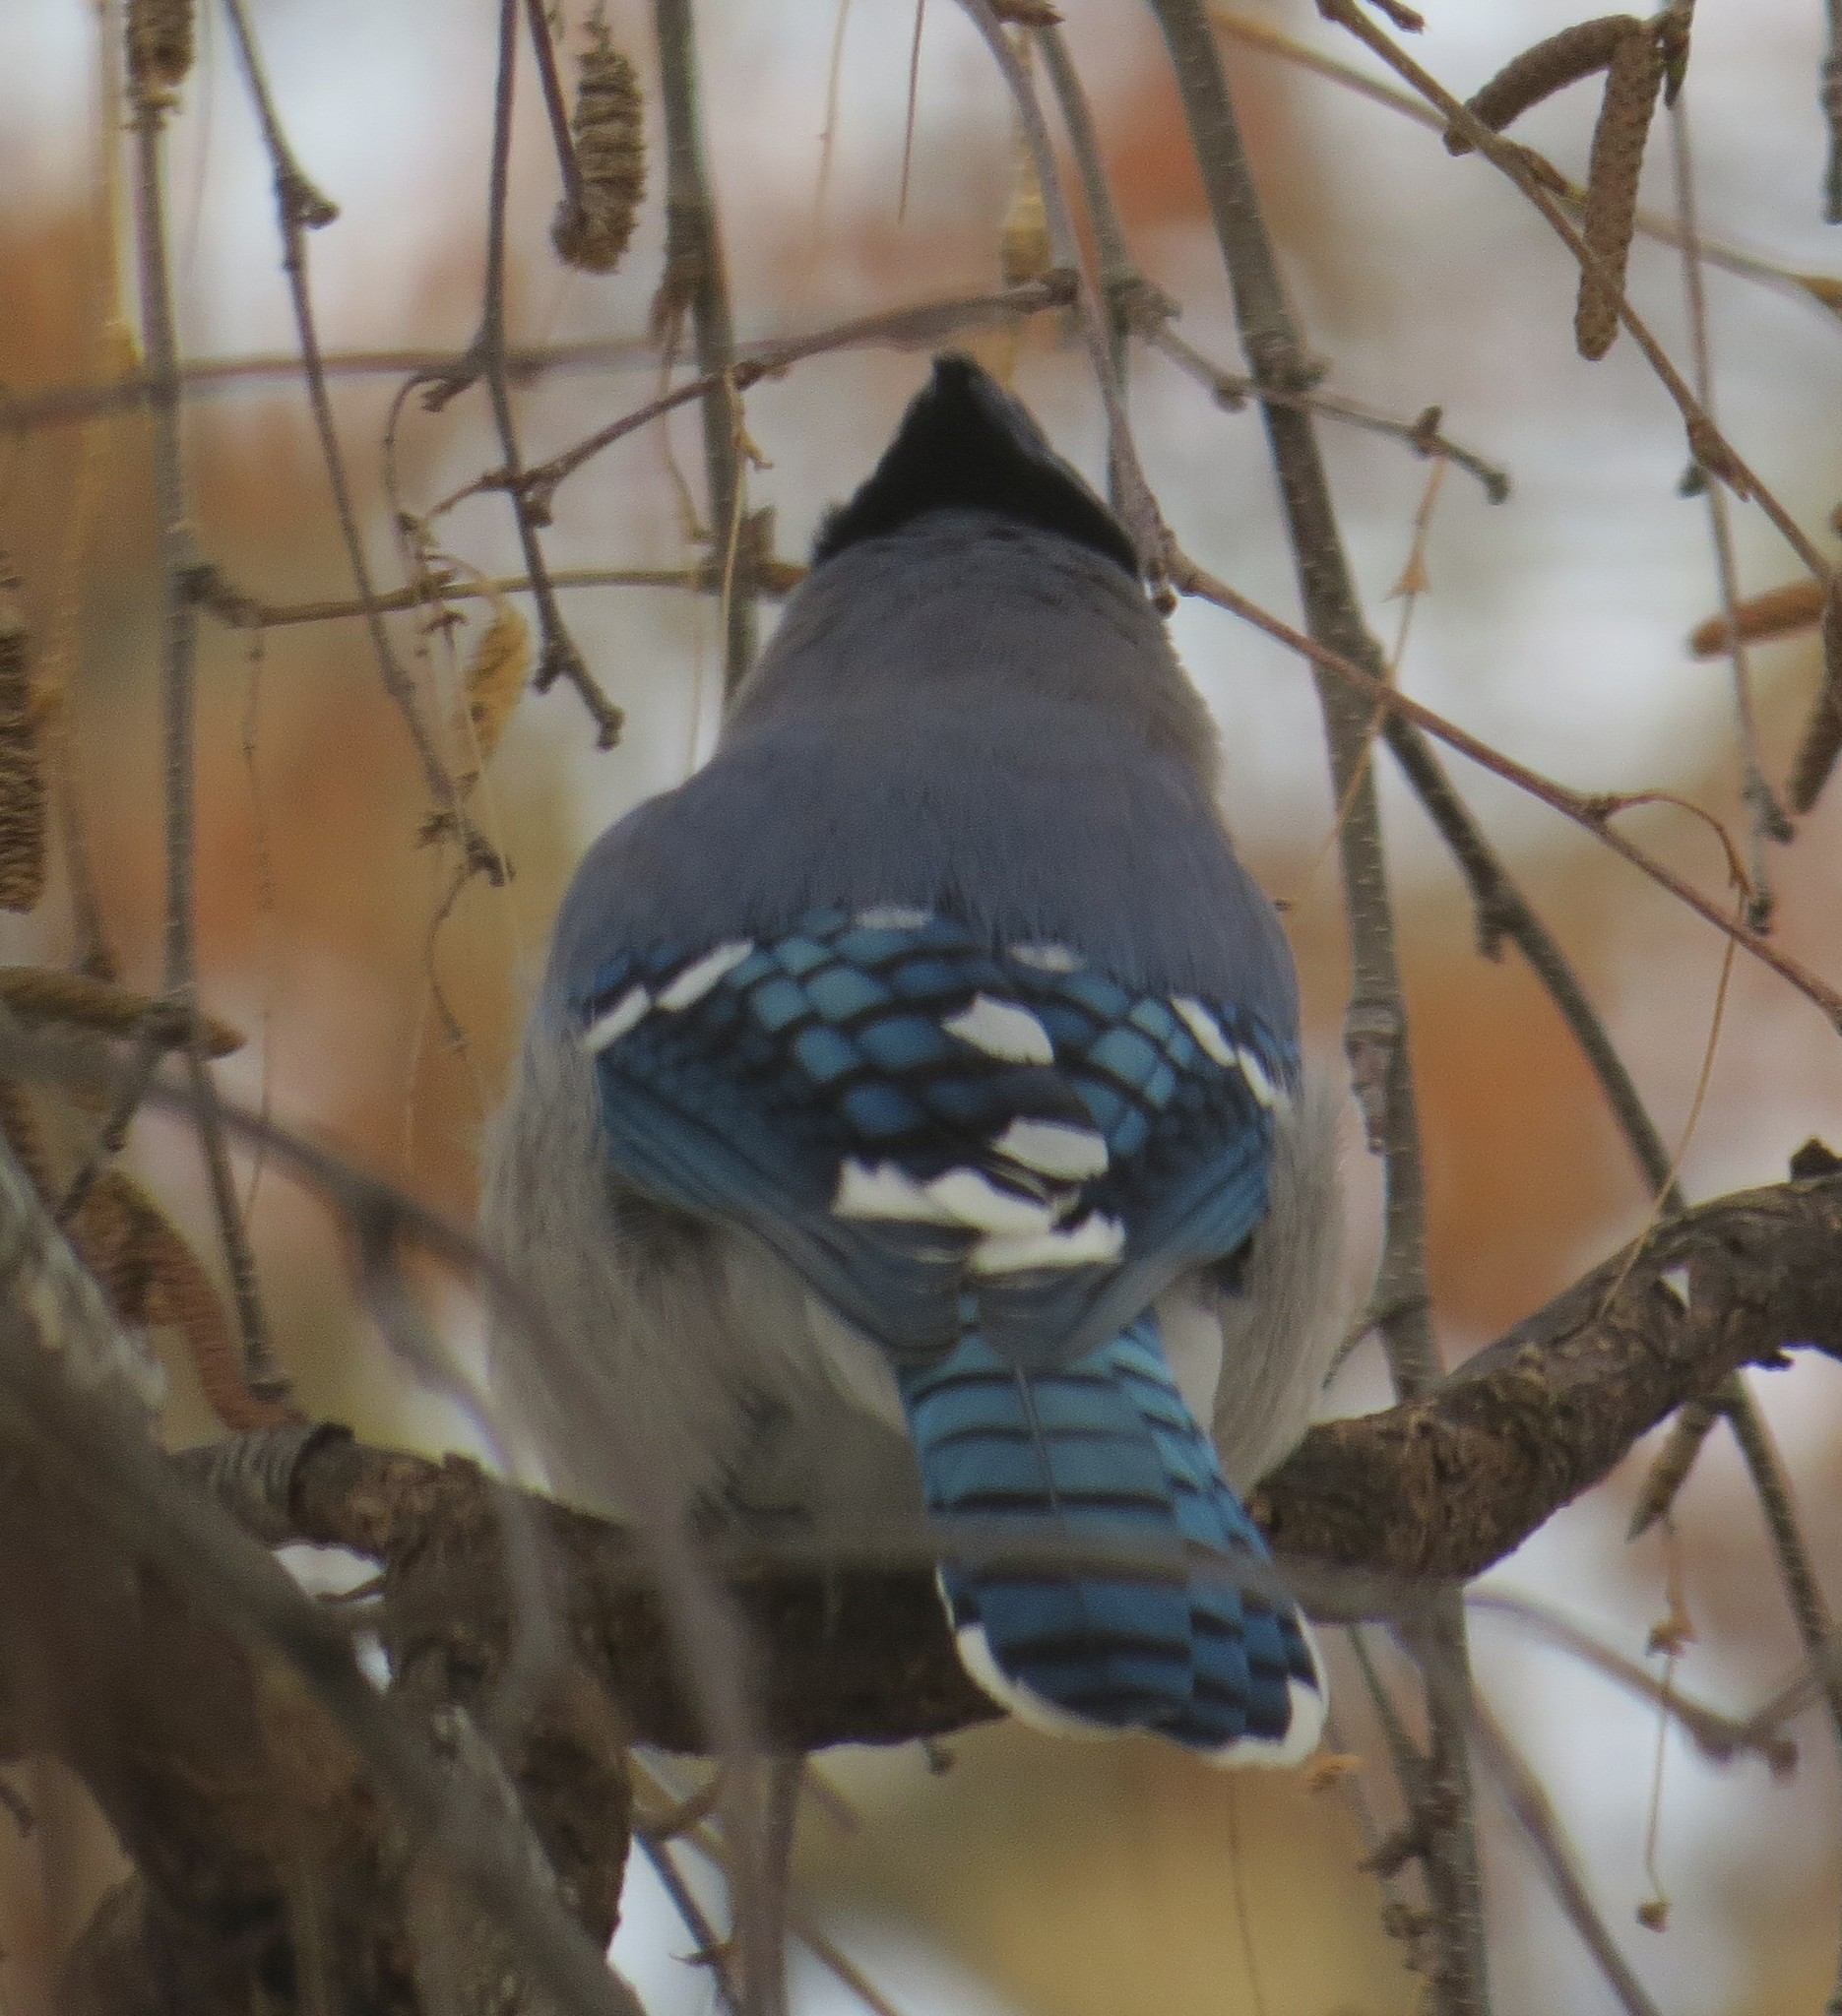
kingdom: Animalia
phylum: Chordata
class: Aves
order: Passeriformes
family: Corvidae
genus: Cyanocitta
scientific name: Cyanocitta cristata
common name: Blue jay
